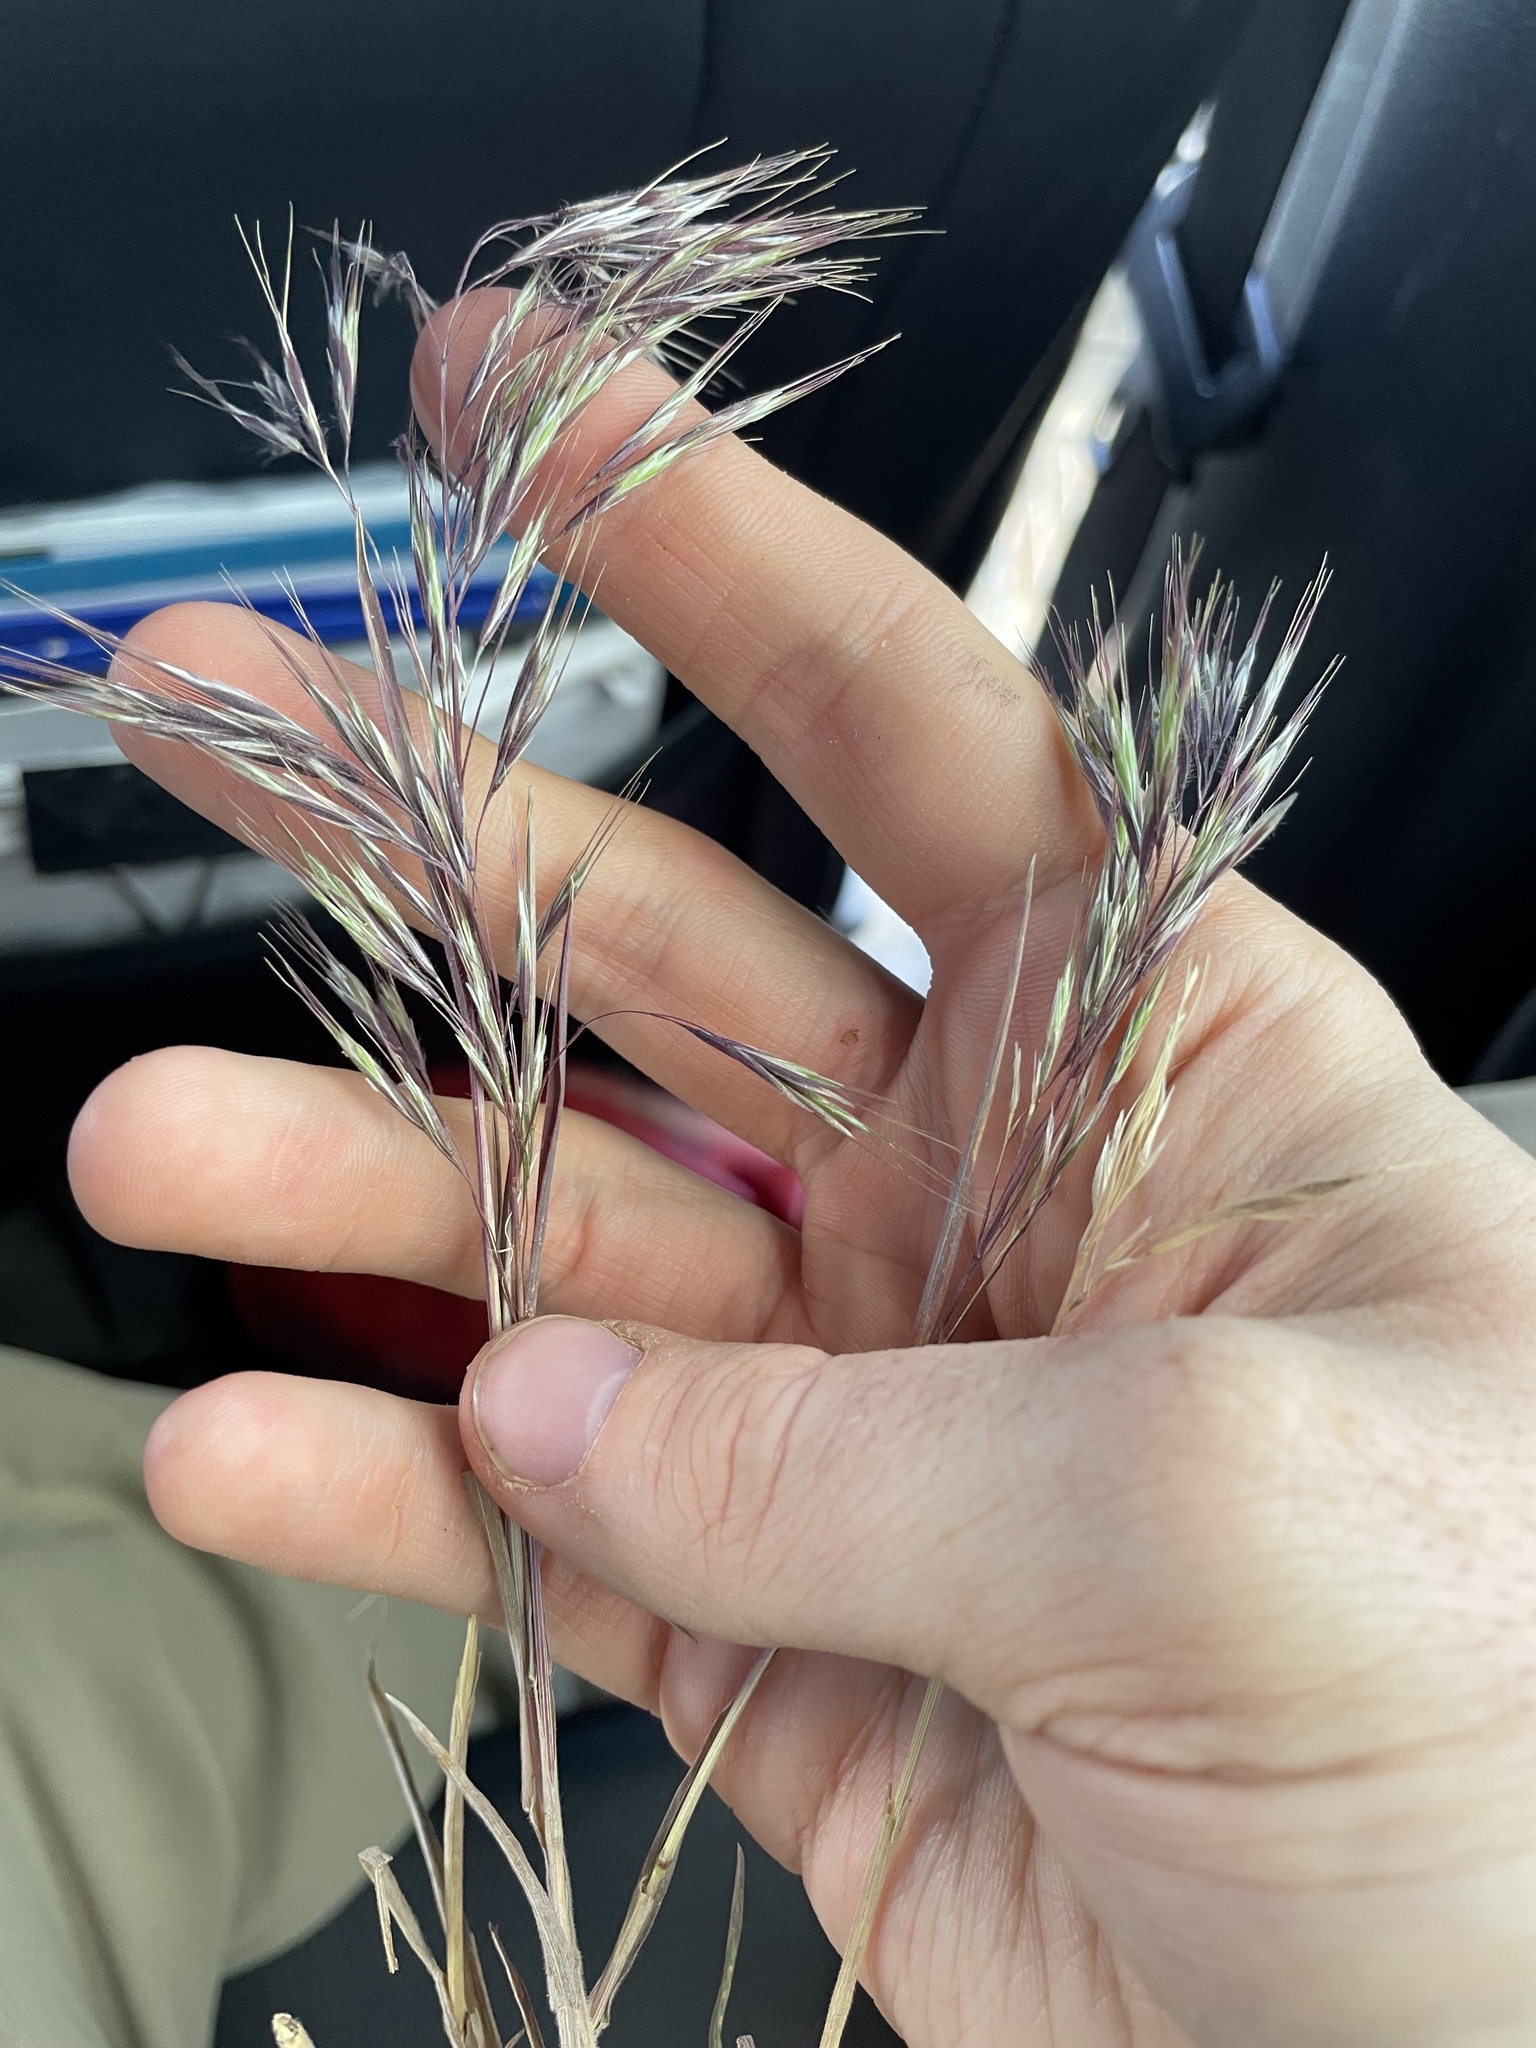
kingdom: Plantae
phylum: Tracheophyta
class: Liliopsida
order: Poales
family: Poaceae
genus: Bromus
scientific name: Bromus tectorum
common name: Cheatgrass
